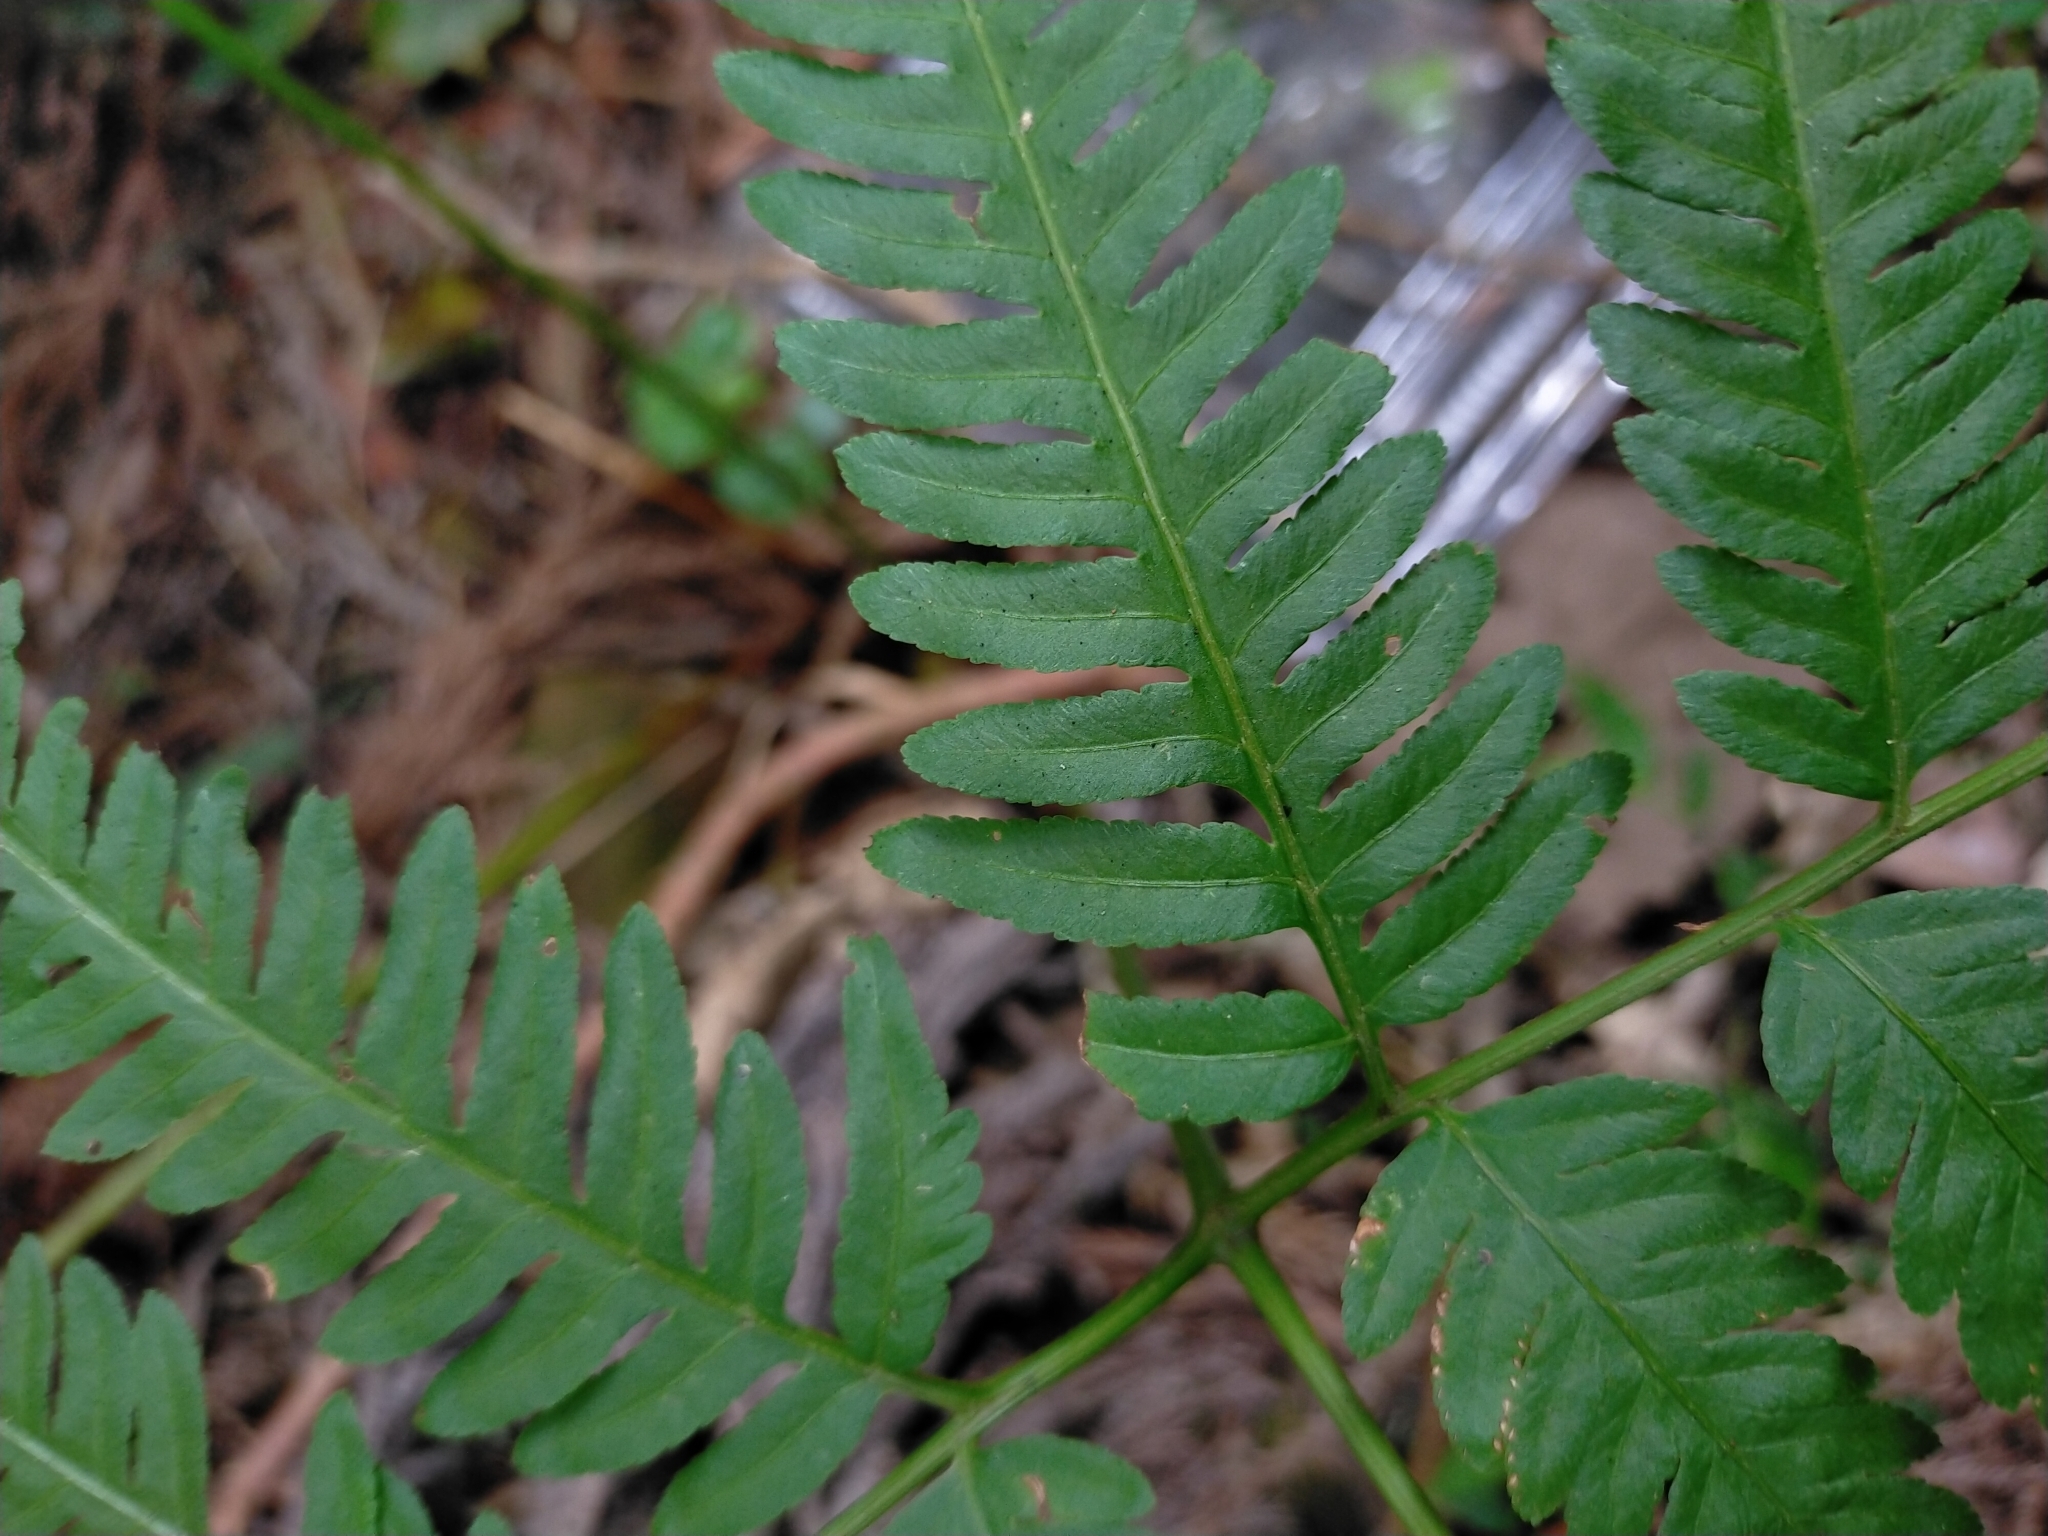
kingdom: Plantae
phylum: Tracheophyta
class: Polypodiopsida
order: Polypodiales
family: Pteridaceae
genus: Pteris
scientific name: Pteris wallichiana
